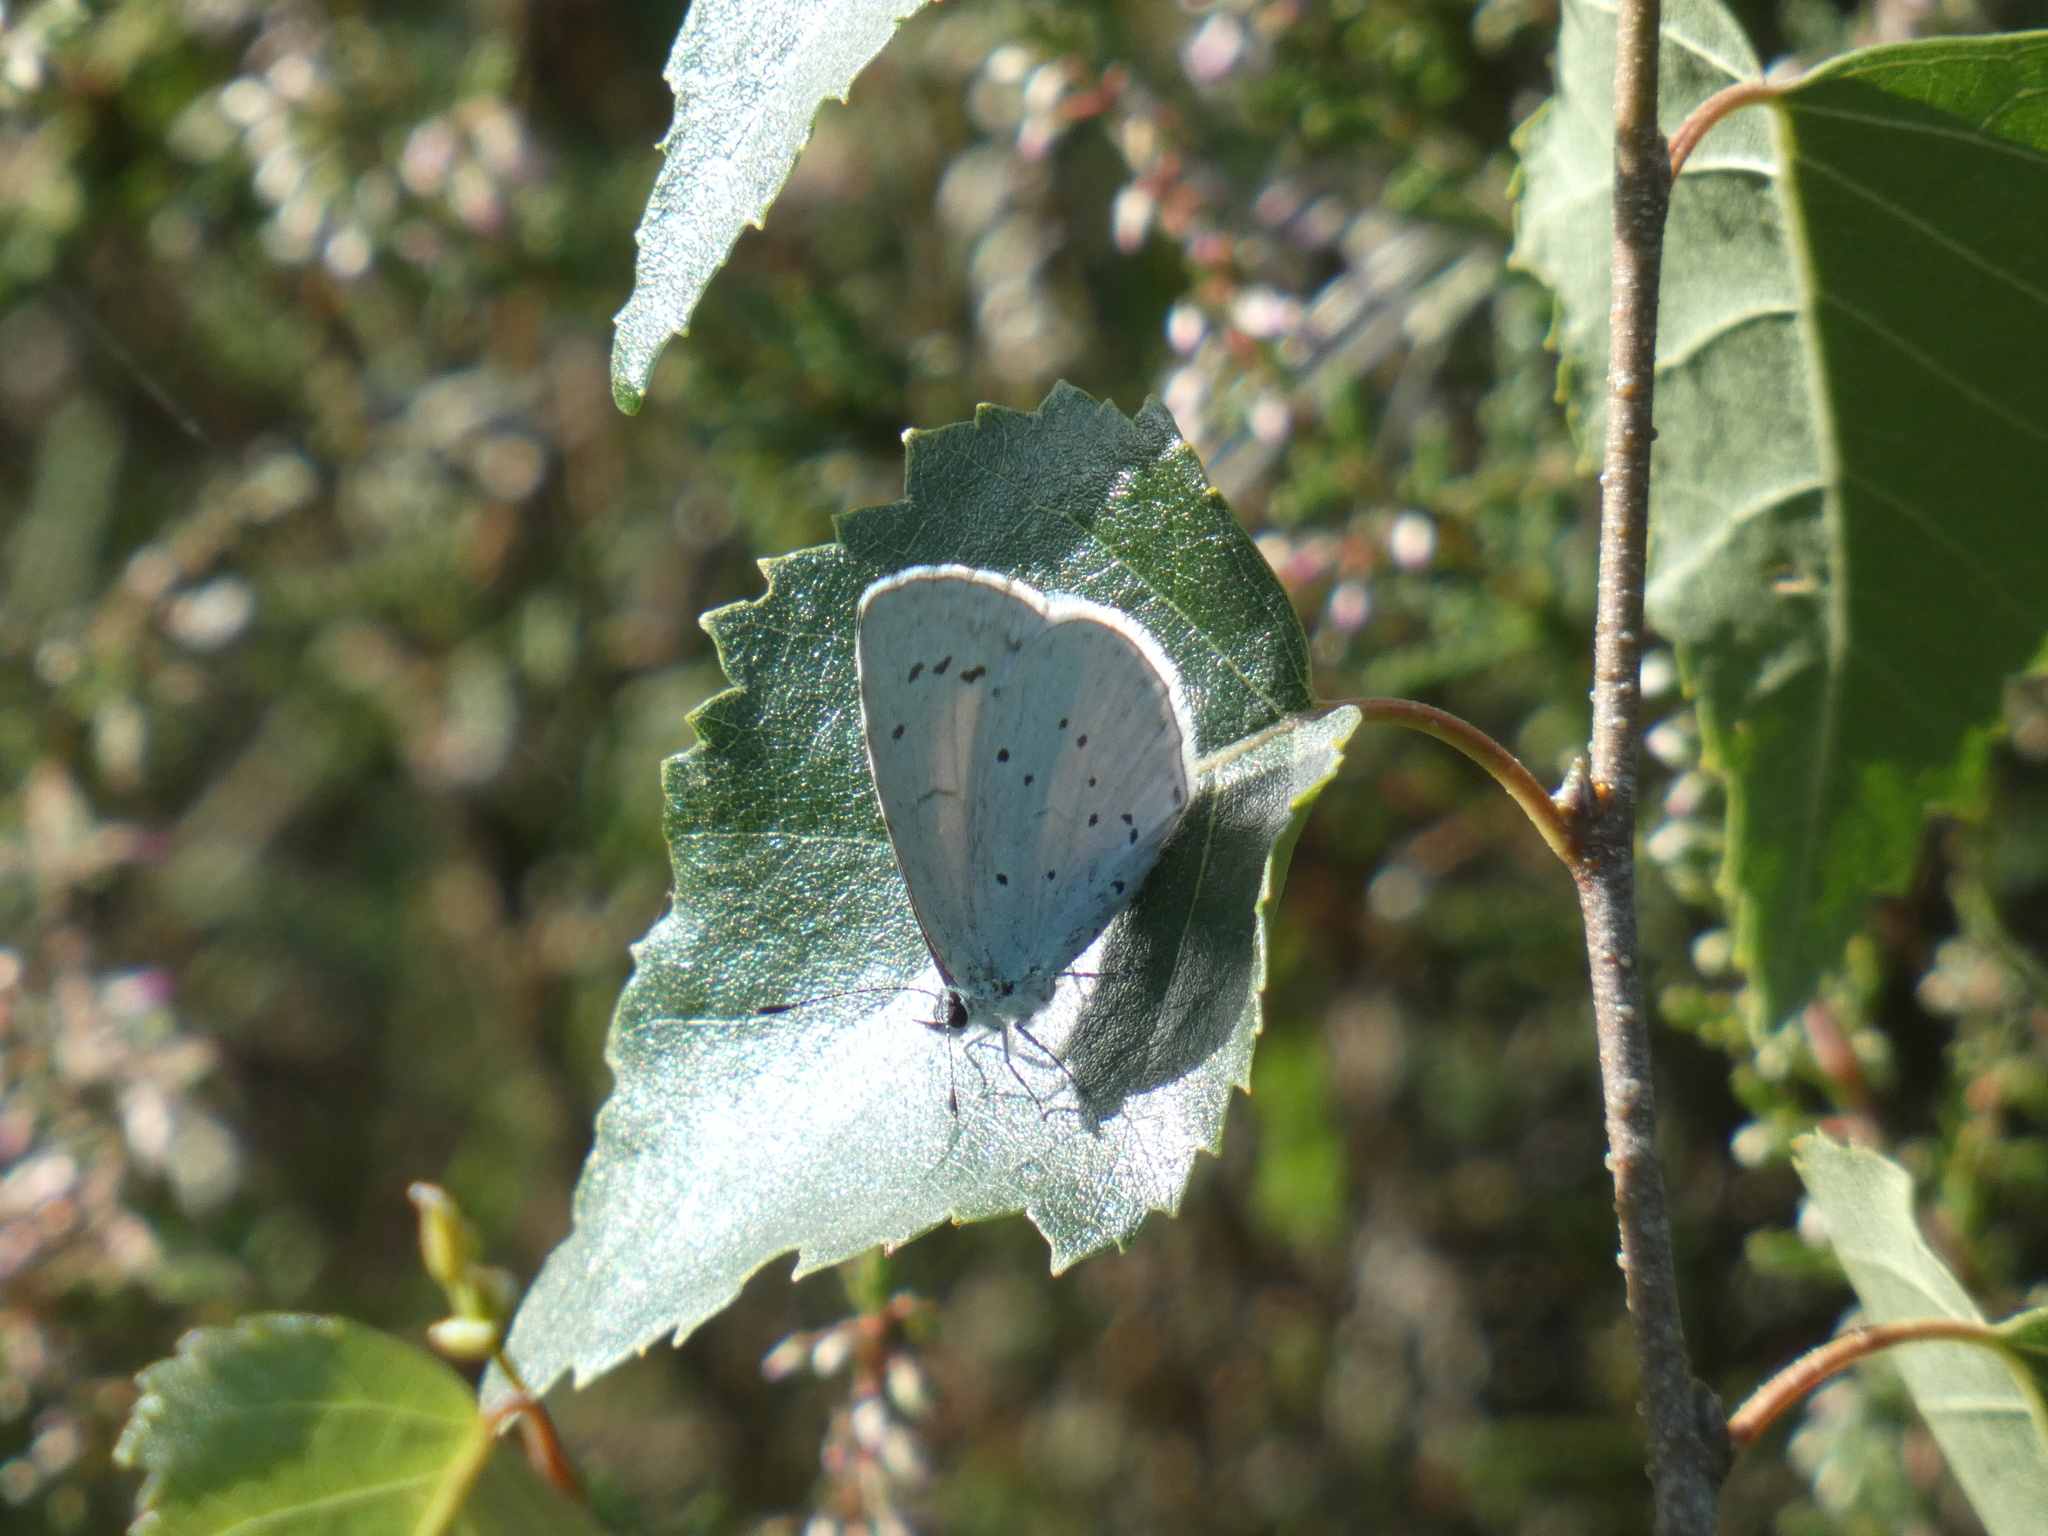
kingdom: Animalia
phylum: Arthropoda
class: Insecta
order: Lepidoptera
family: Lycaenidae
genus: Celastrina
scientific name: Celastrina argiolus
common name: Holly blue
